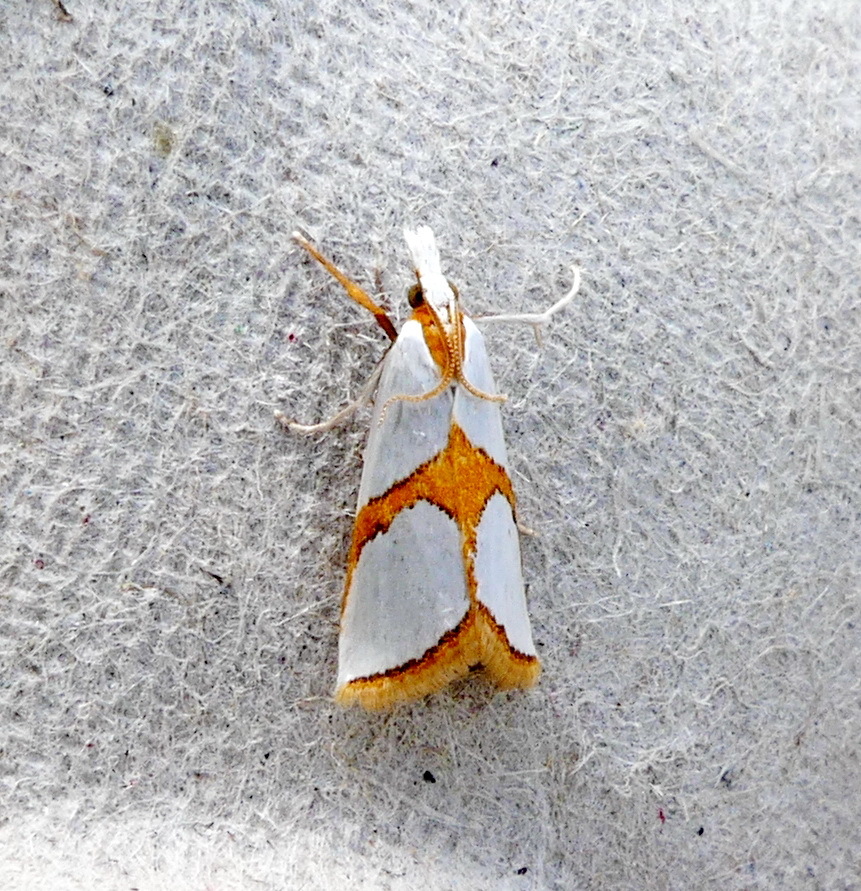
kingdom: Animalia
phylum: Arthropoda
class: Insecta
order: Lepidoptera
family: Crambidae
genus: Argyria
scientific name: Argyria auratella
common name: Curve-lined argyria moth
